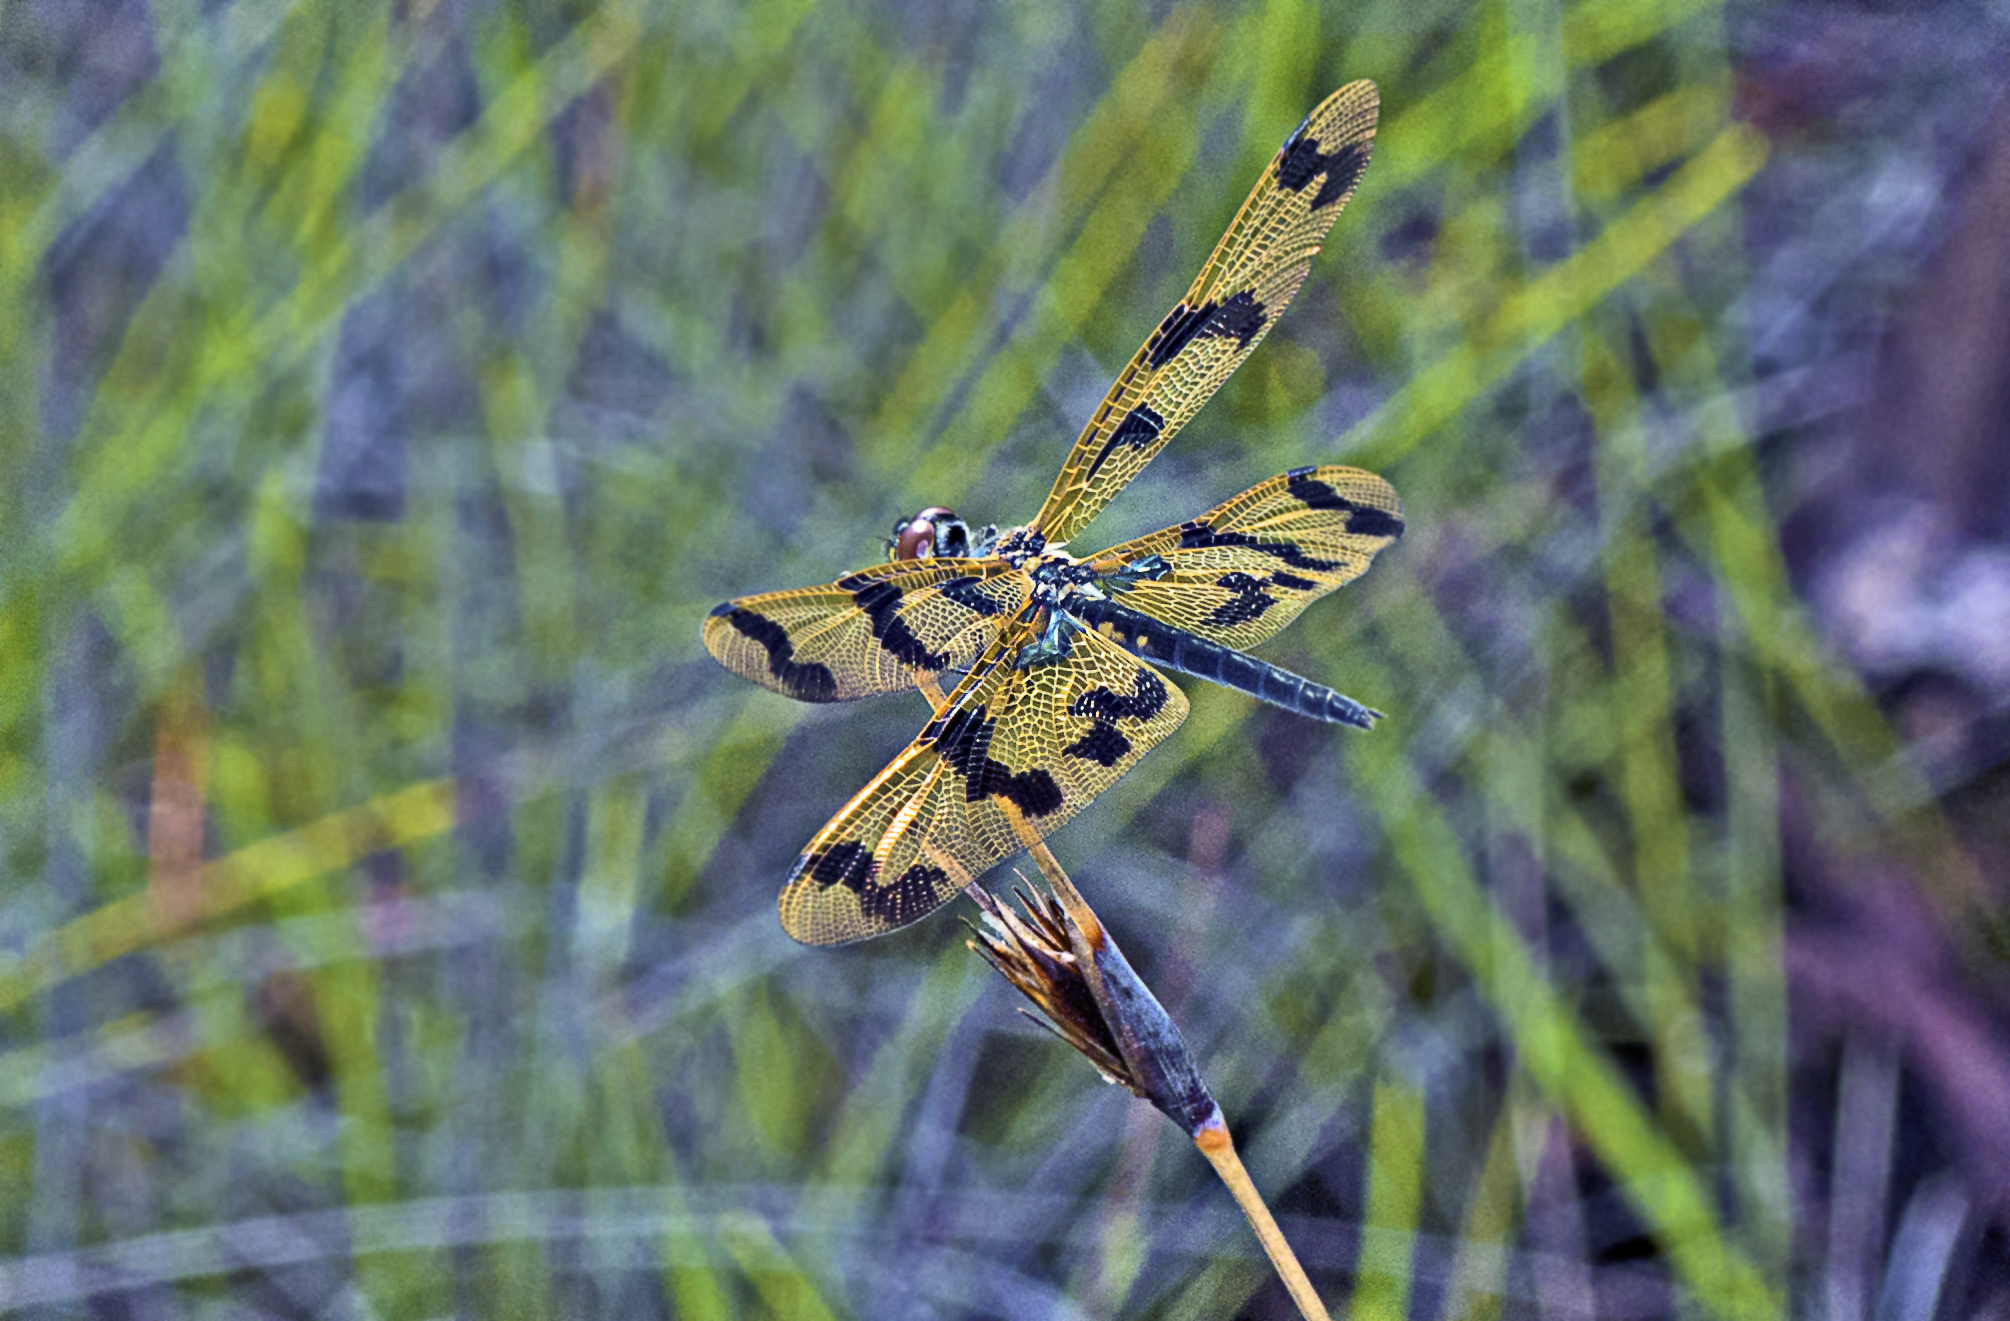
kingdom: Animalia
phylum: Arthropoda
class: Insecta
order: Odonata
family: Libellulidae
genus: Rhyothemis
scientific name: Rhyothemis graphiptera
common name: Graphic flutterer
